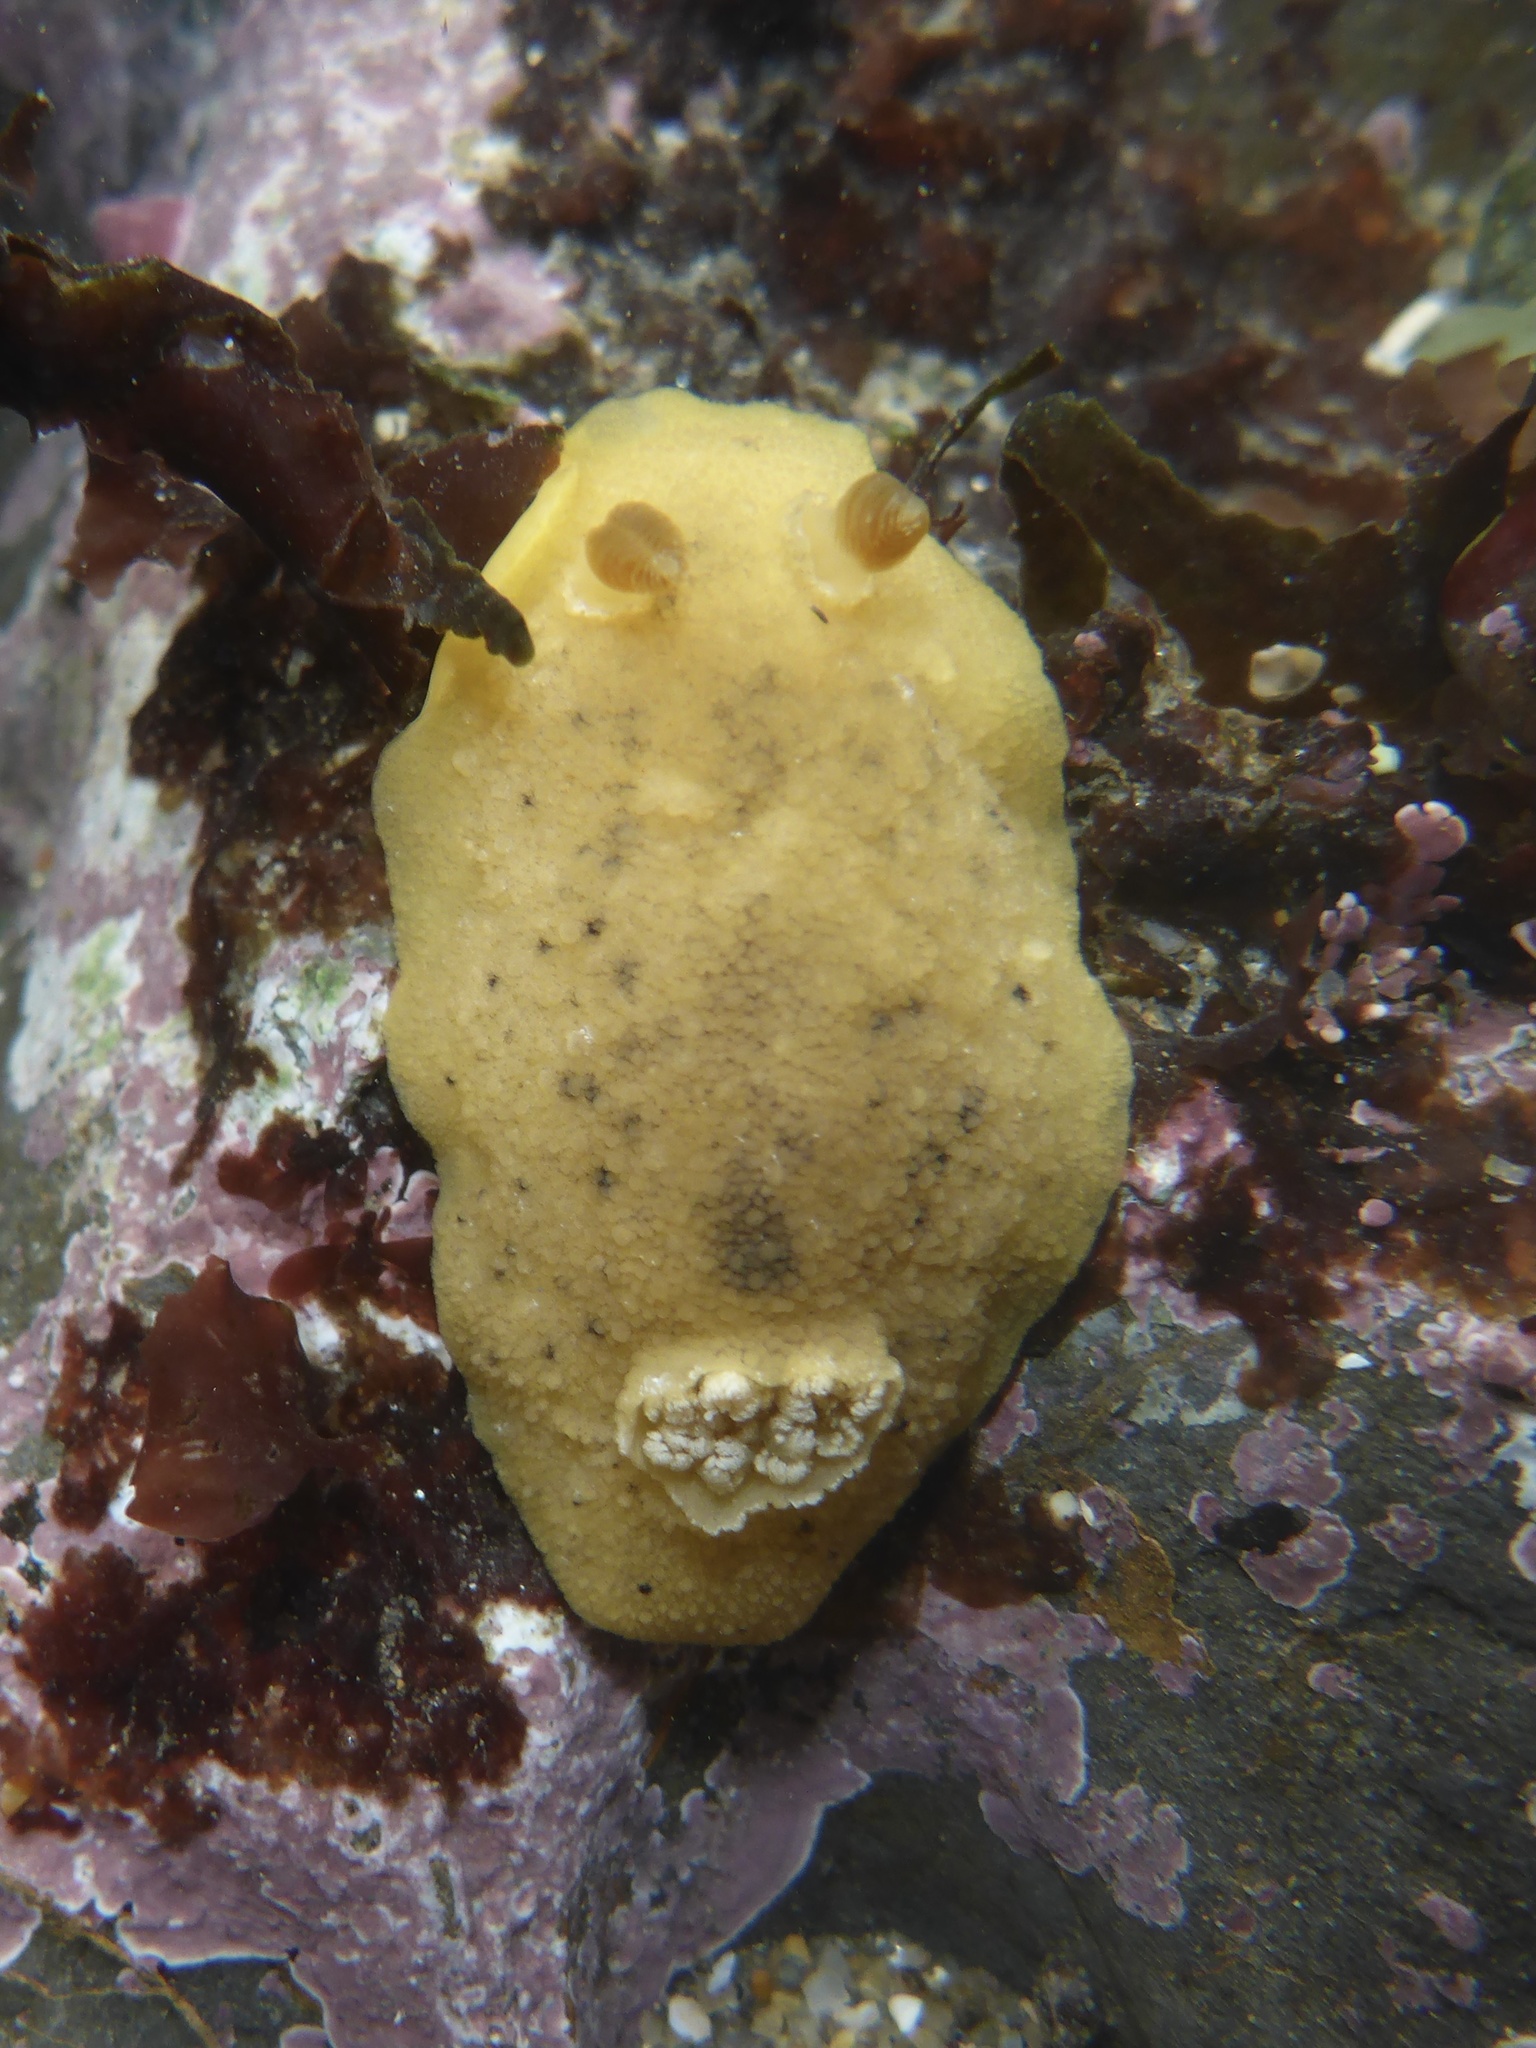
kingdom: Animalia
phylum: Mollusca
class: Gastropoda
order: Nudibranchia
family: Discodorididae
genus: Geitodoris
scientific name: Geitodoris heathi
